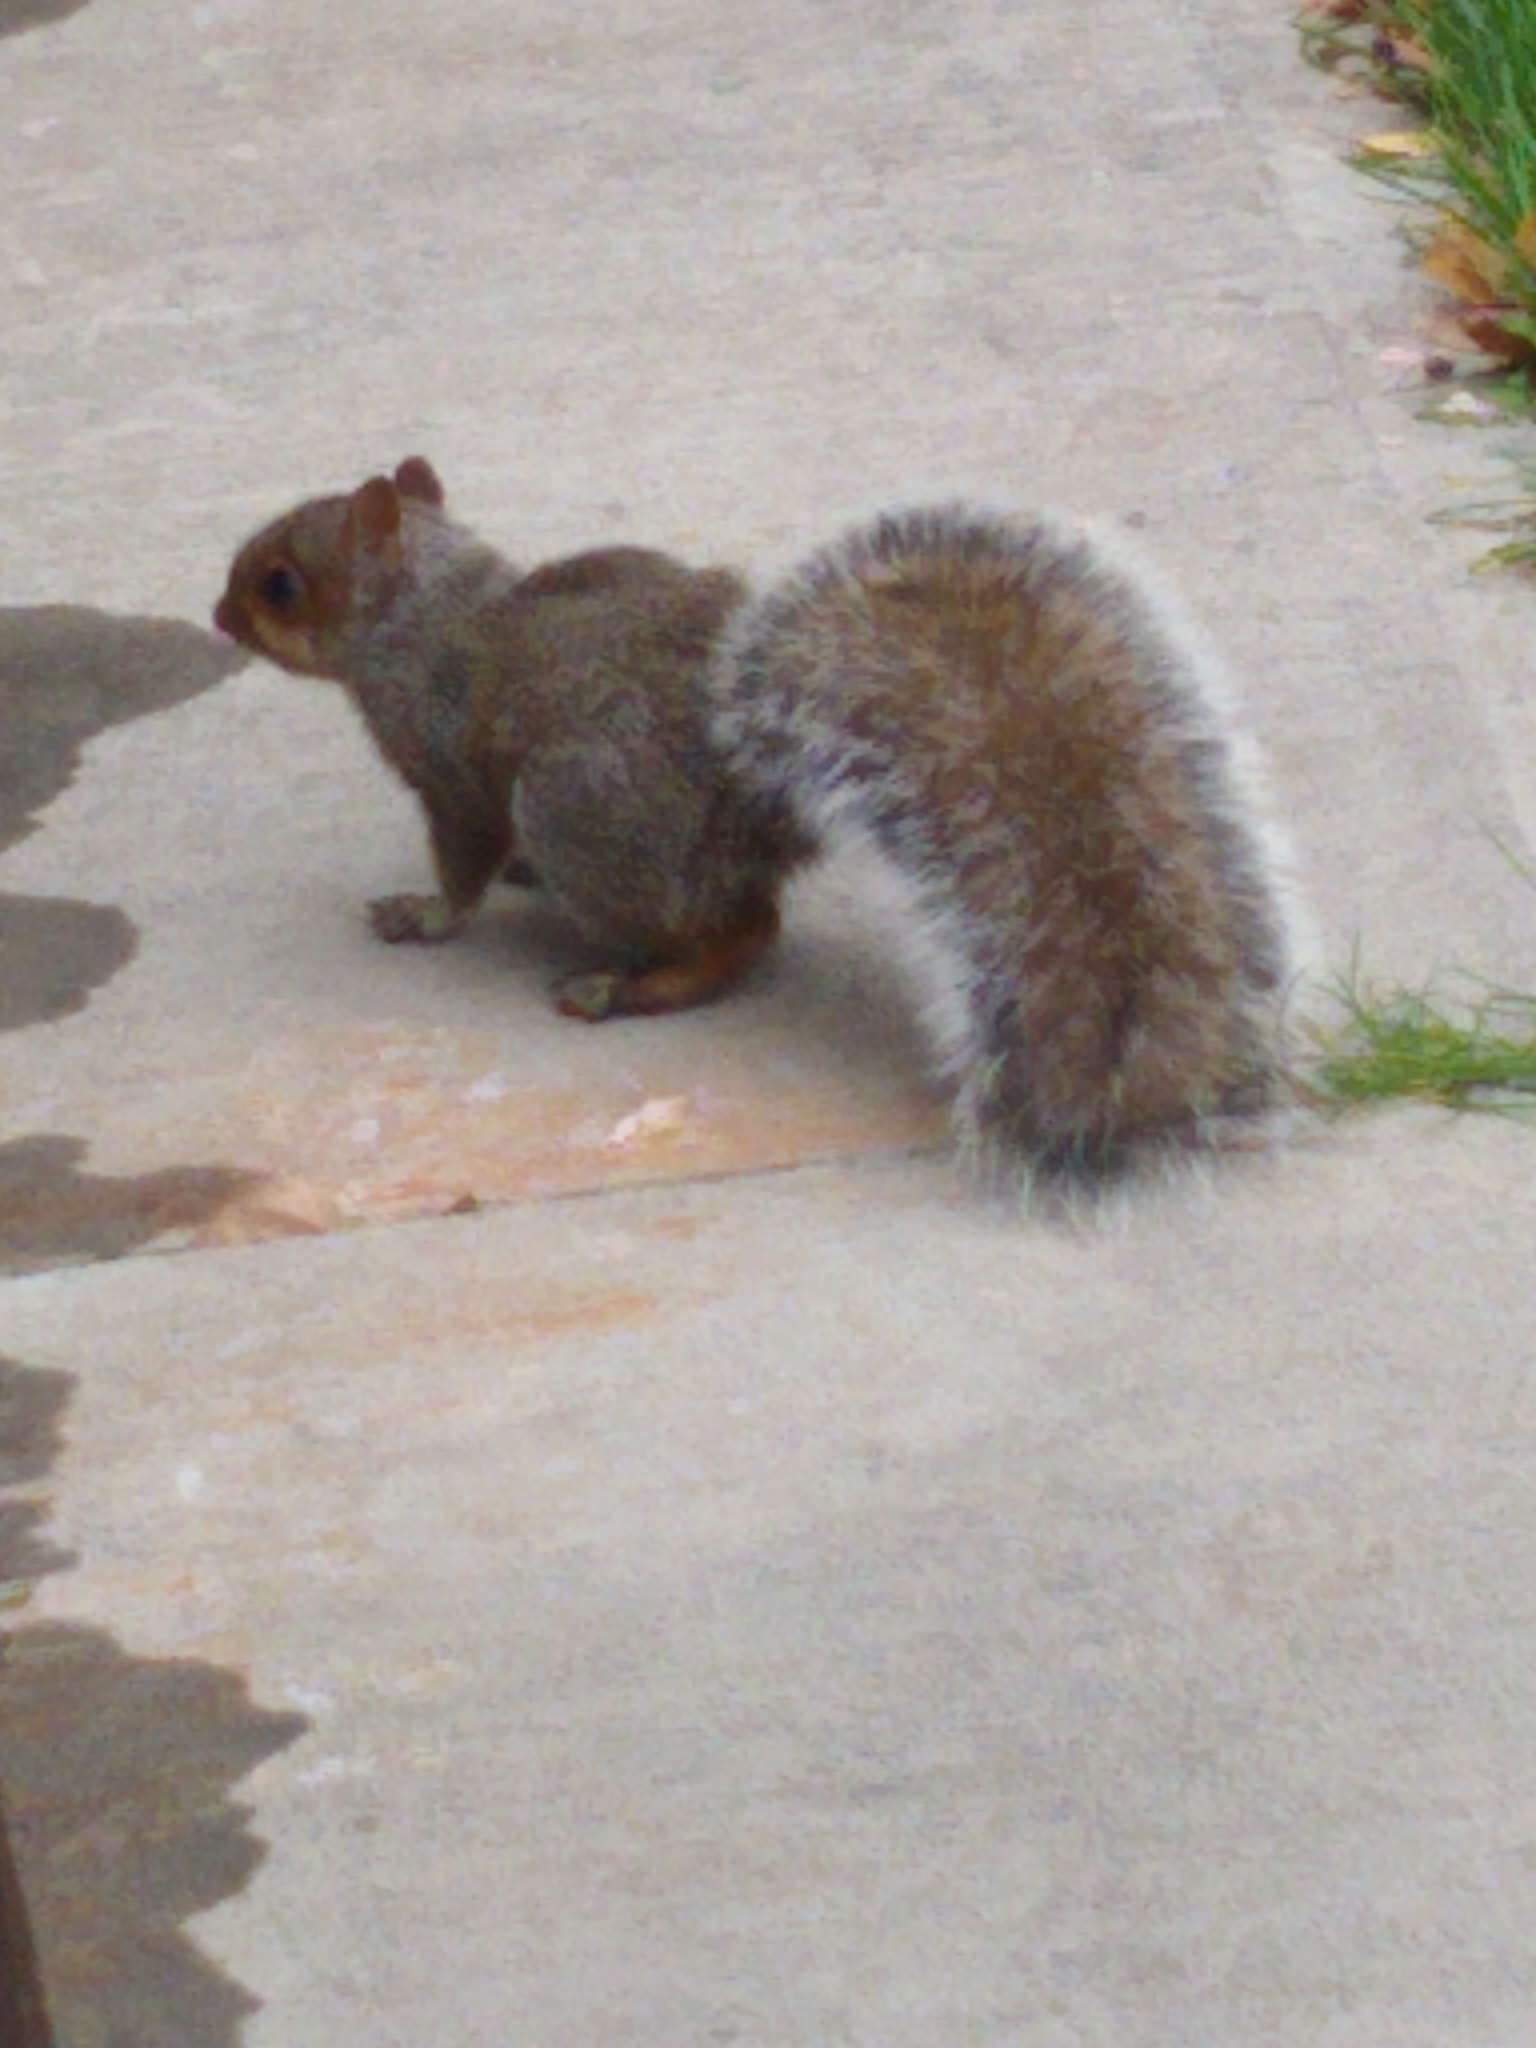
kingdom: Animalia
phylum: Chordata
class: Mammalia
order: Rodentia
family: Sciuridae
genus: Sciurus
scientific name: Sciurus carolinensis
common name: Eastern gray squirrel
